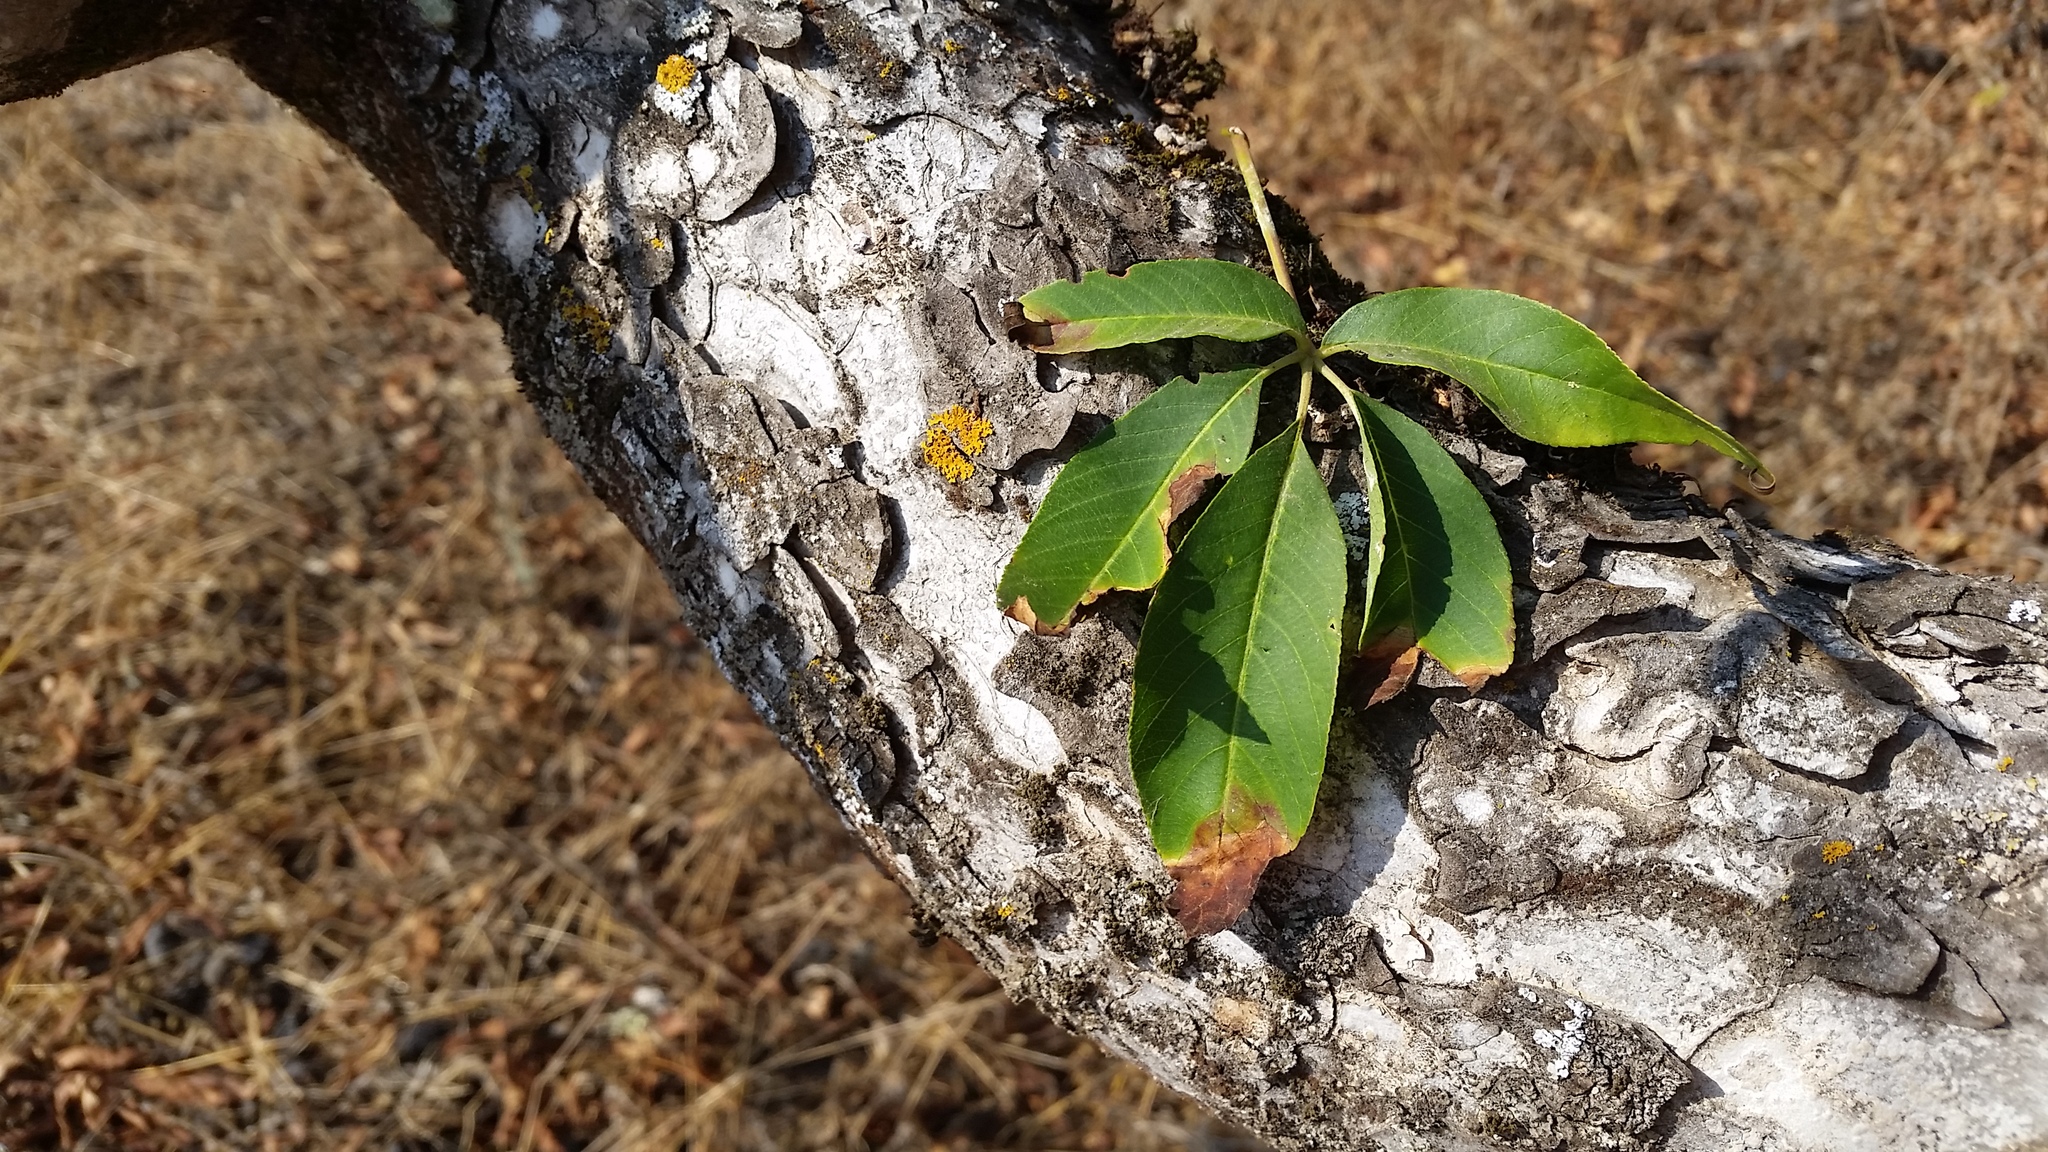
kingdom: Plantae
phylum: Tracheophyta
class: Magnoliopsida
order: Sapindales
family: Sapindaceae
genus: Aesculus
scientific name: Aesculus californica
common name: California buckeye
